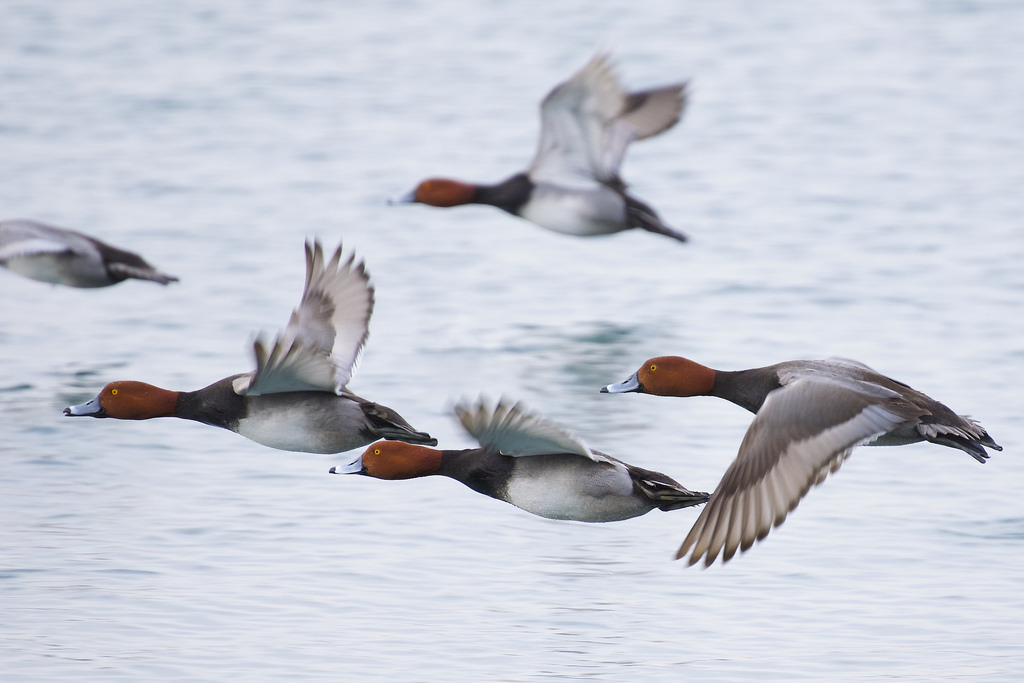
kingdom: Animalia
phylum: Chordata
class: Aves
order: Anseriformes
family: Anatidae
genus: Aythya
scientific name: Aythya americana
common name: Redhead
